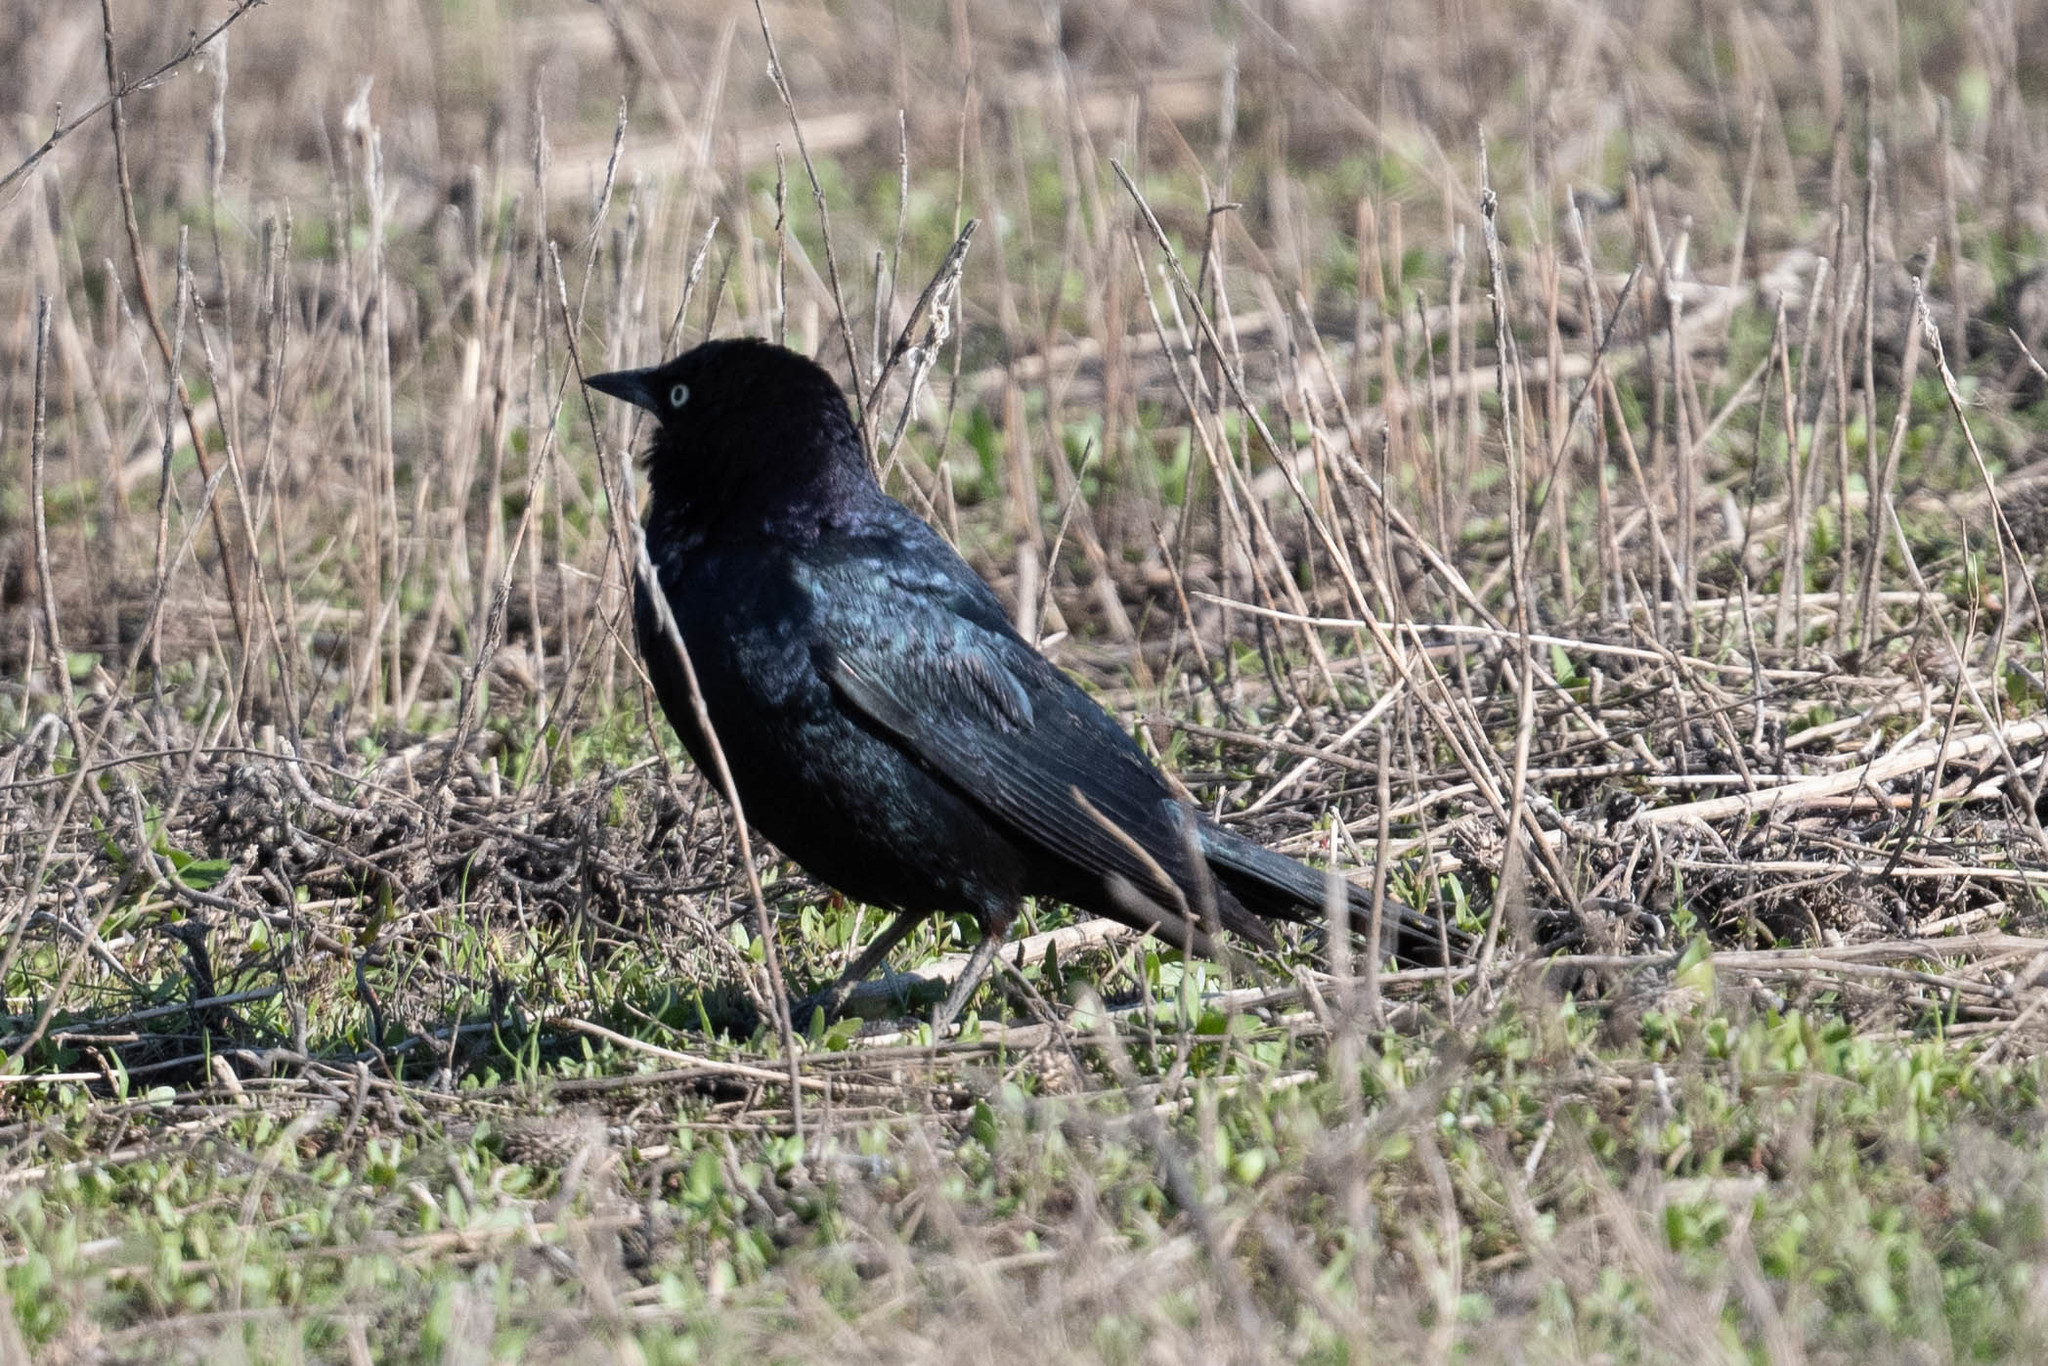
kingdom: Animalia
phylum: Chordata
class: Aves
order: Passeriformes
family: Icteridae
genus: Euphagus
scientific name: Euphagus cyanocephalus
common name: Brewer's blackbird
